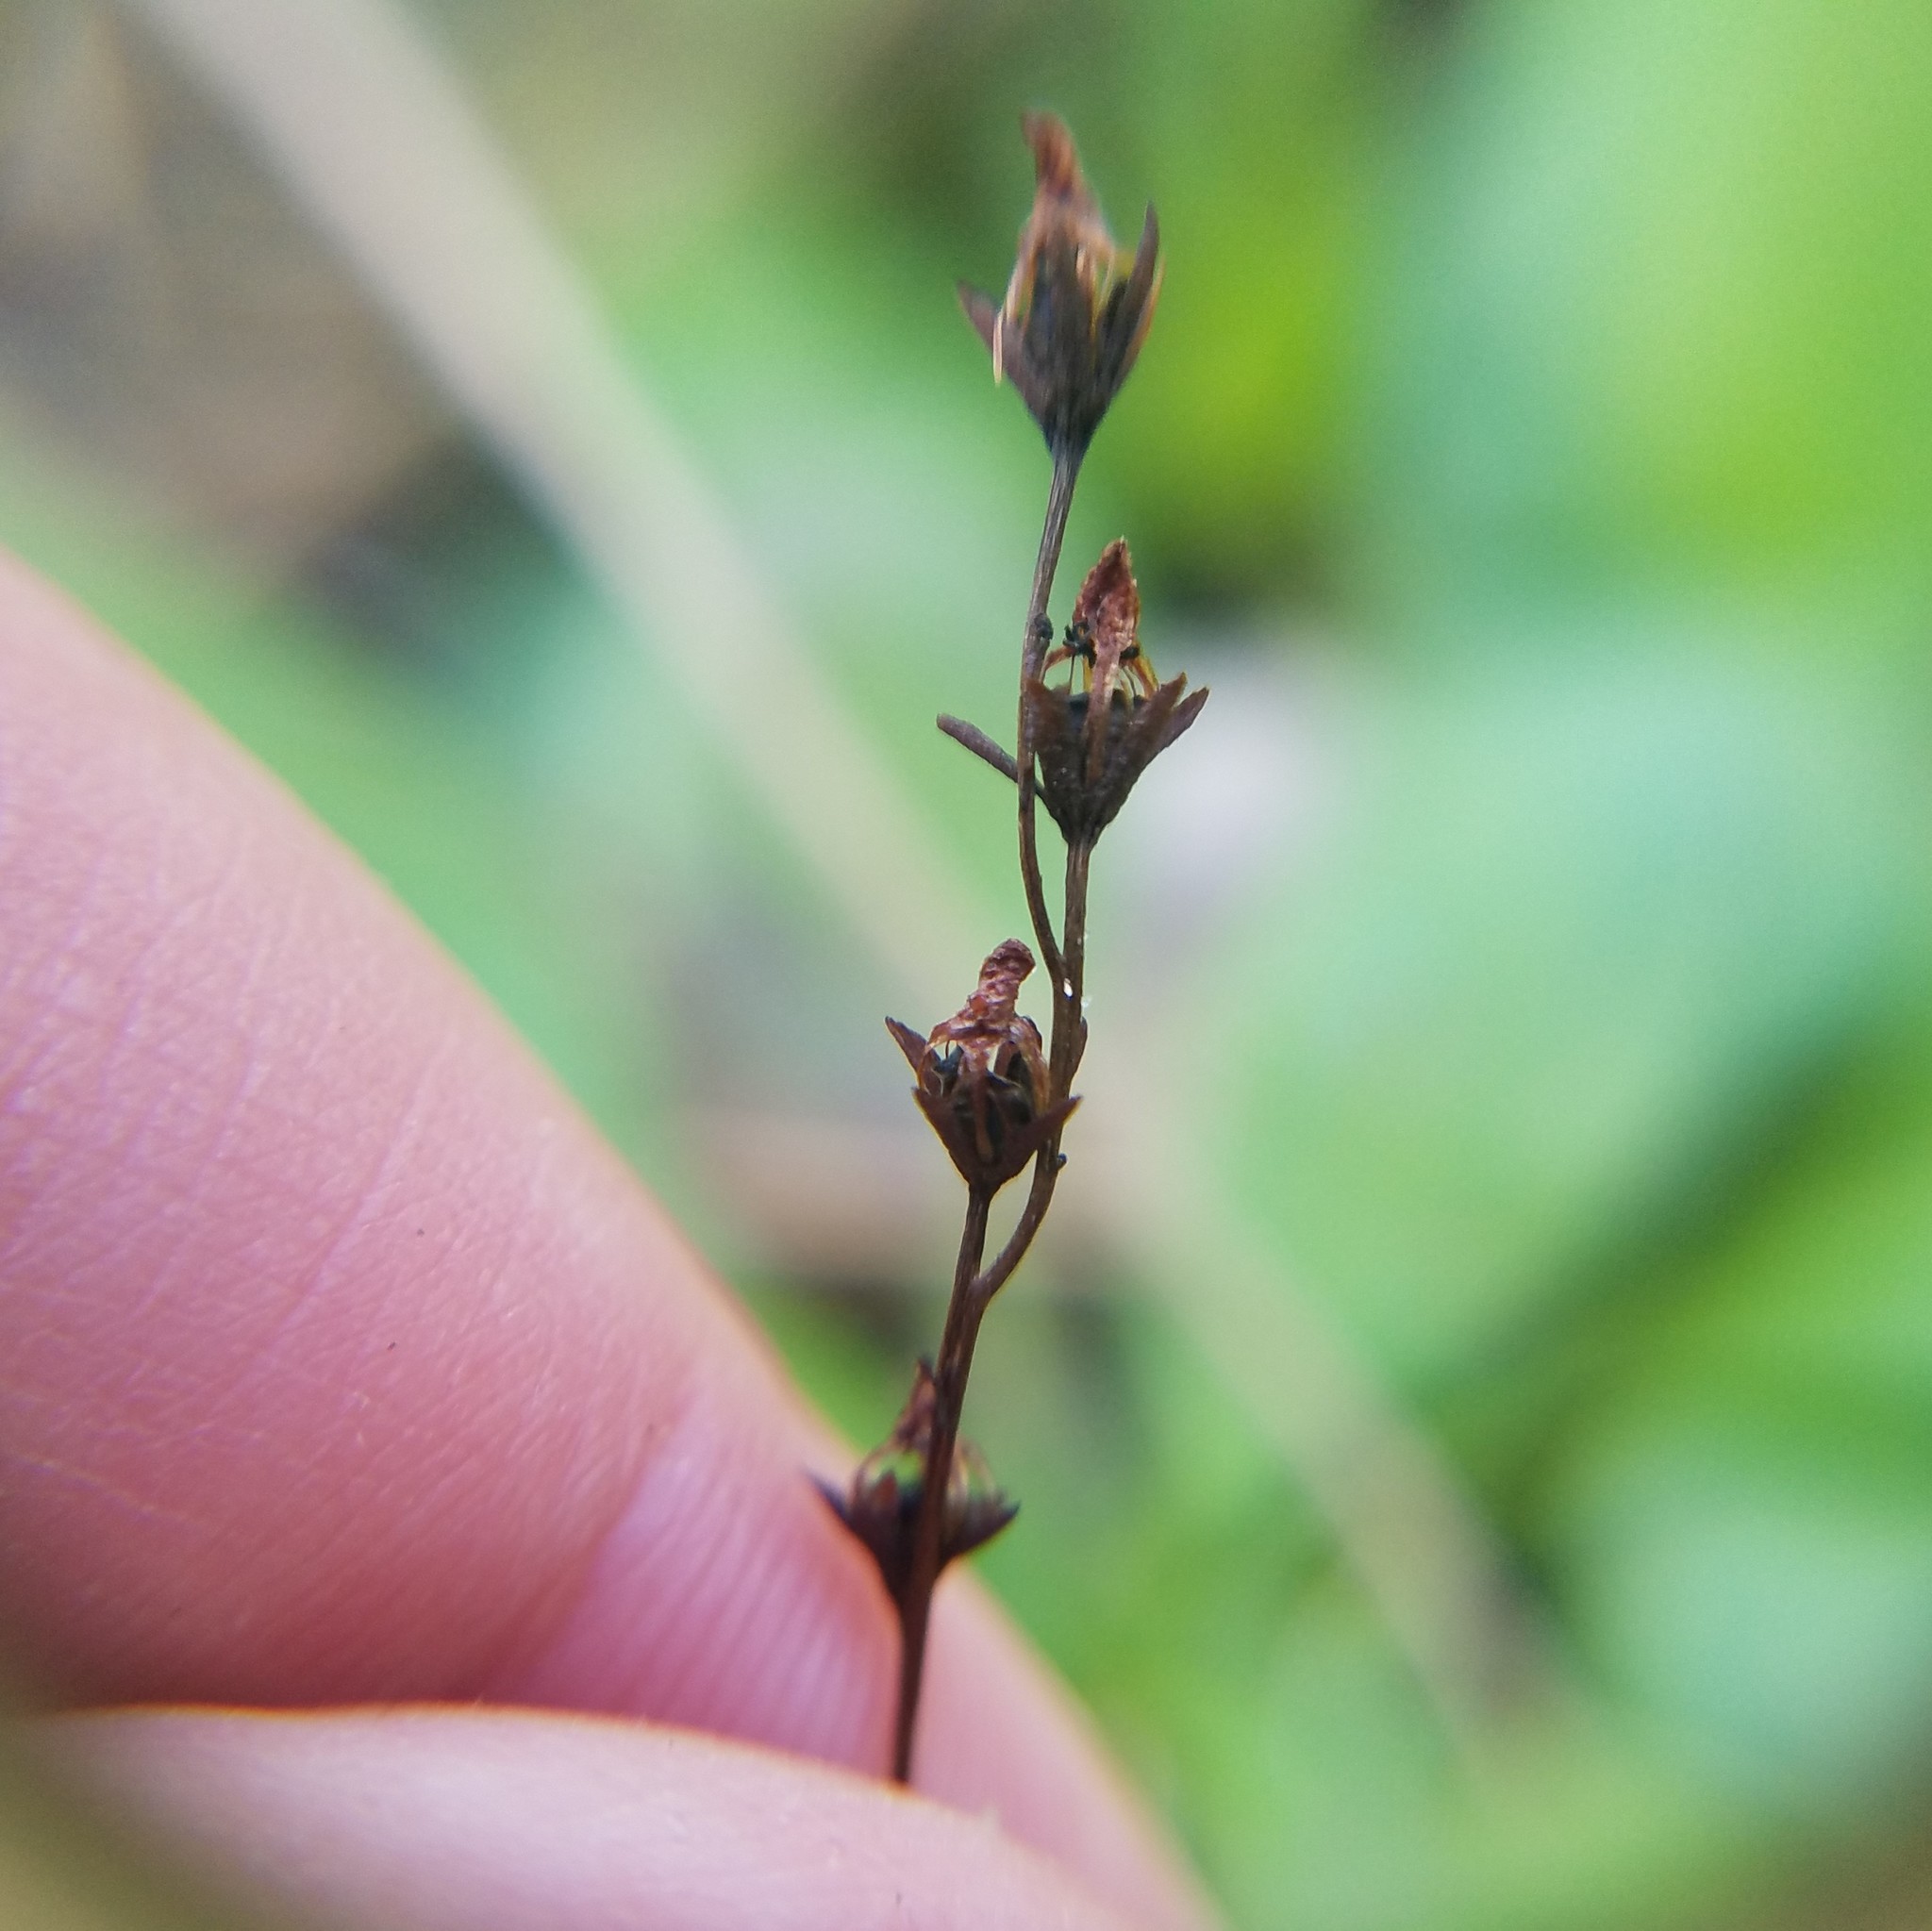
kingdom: Plantae
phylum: Tracheophyta
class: Magnoliopsida
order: Caryophyllales
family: Droseraceae
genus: Drosera
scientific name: Drosera capillaris
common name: Pink sundew
